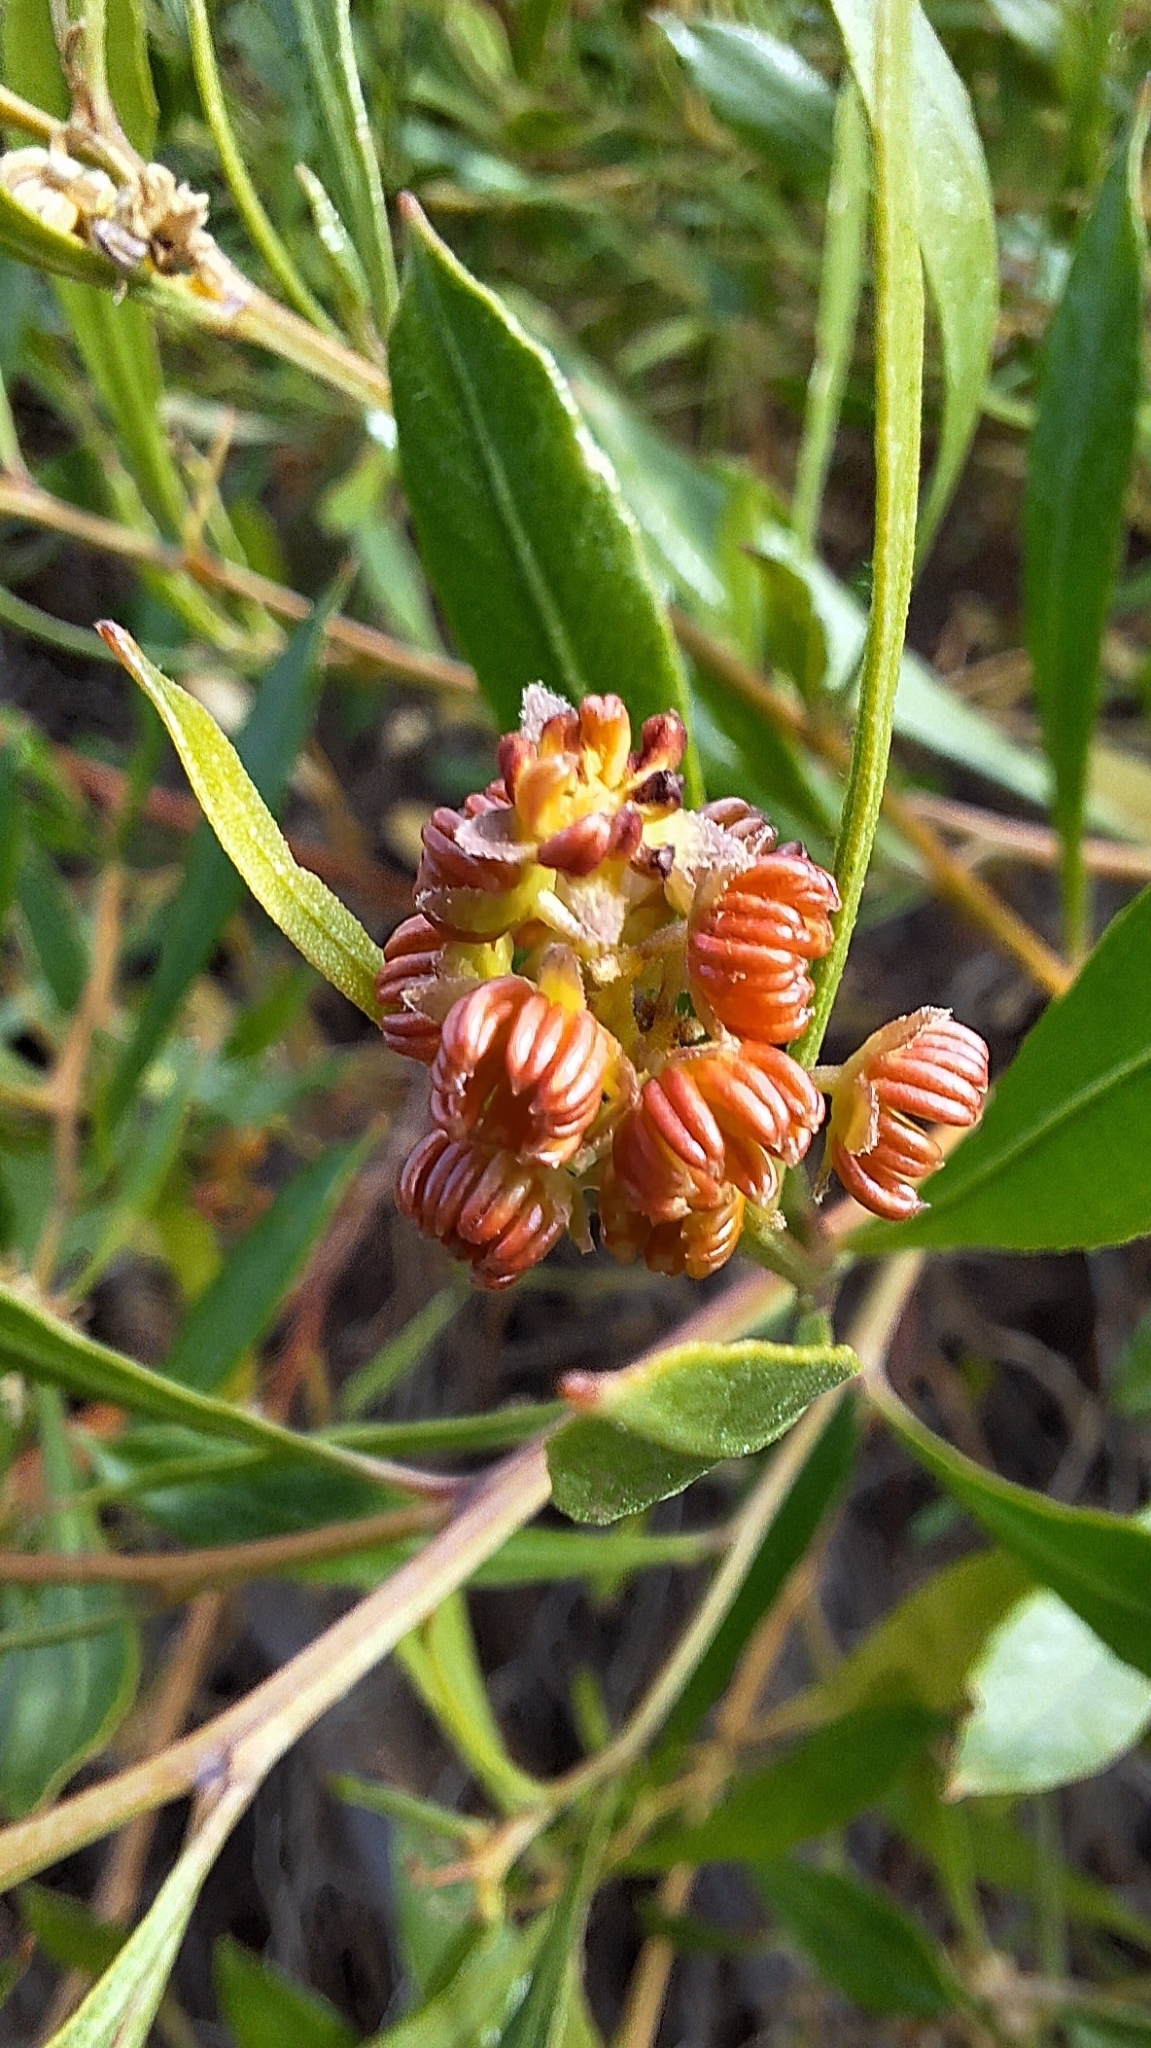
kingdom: Plantae
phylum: Tracheophyta
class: Magnoliopsida
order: Sapindales
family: Sapindaceae
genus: Dodonaea
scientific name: Dodonaea viscosa
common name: Hopbush
